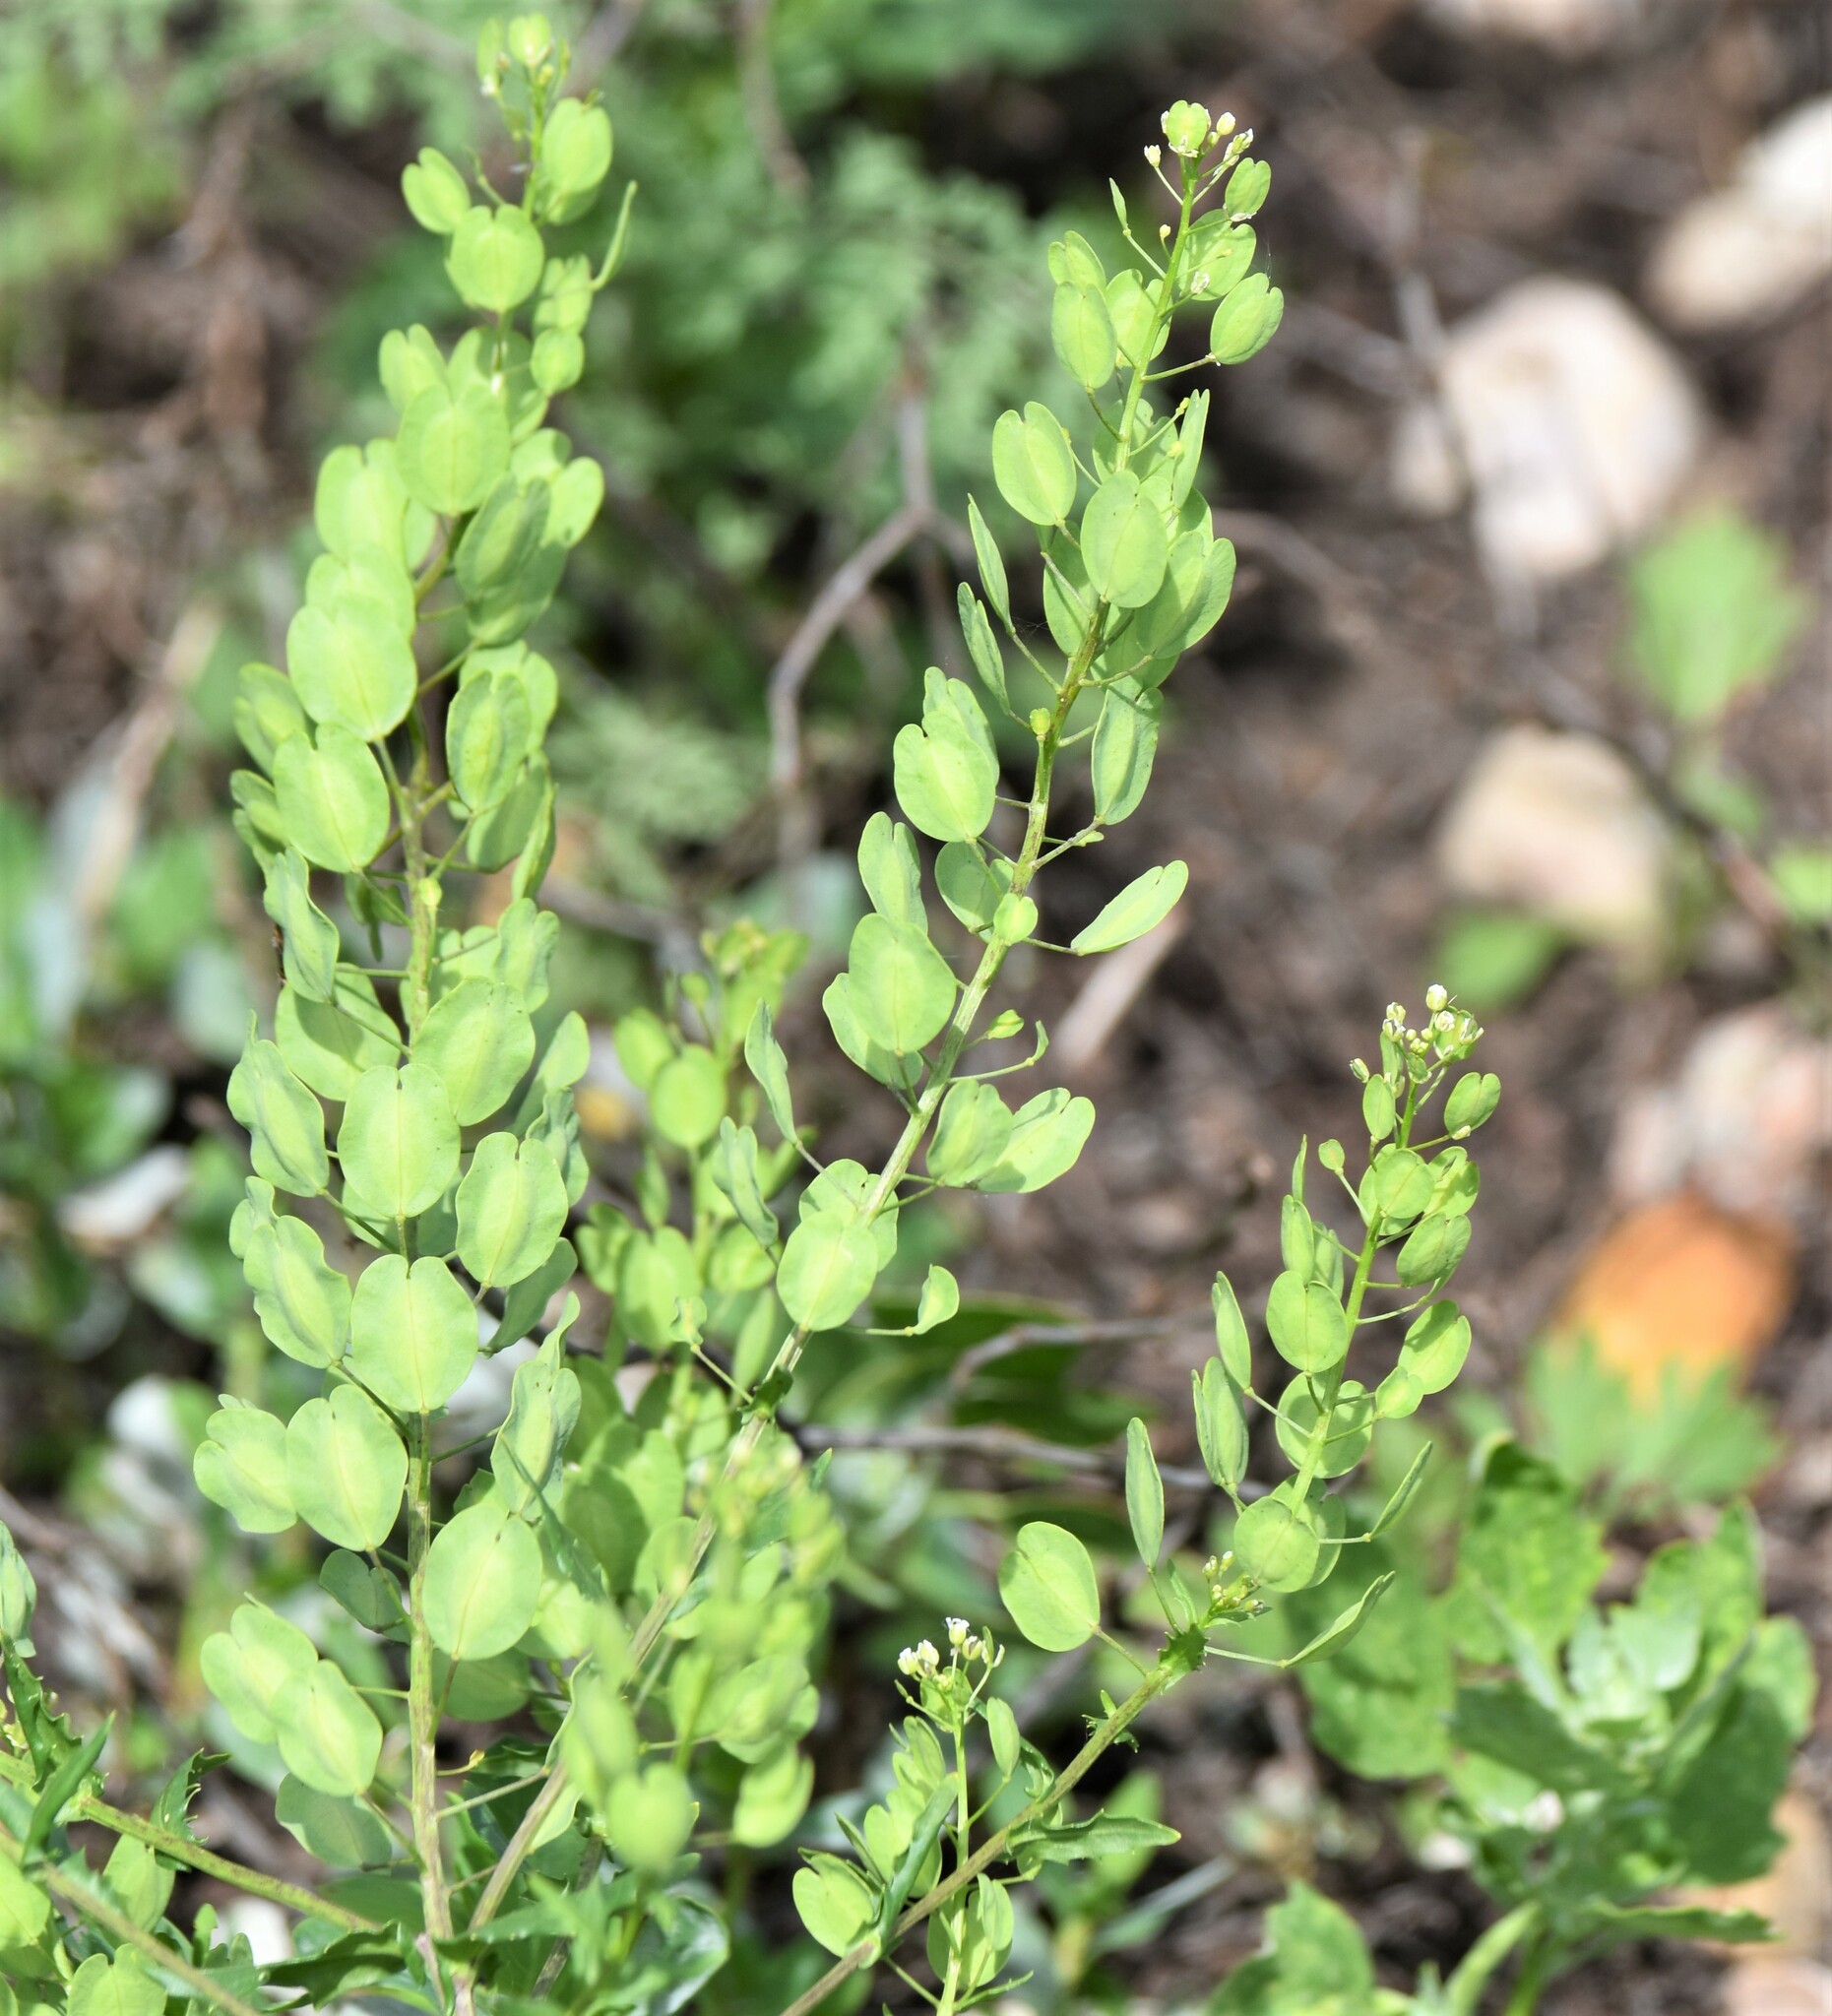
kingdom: Plantae
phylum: Tracheophyta
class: Magnoliopsida
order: Brassicales
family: Brassicaceae
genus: Thlaspi
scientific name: Thlaspi arvense
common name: Field pennycress
